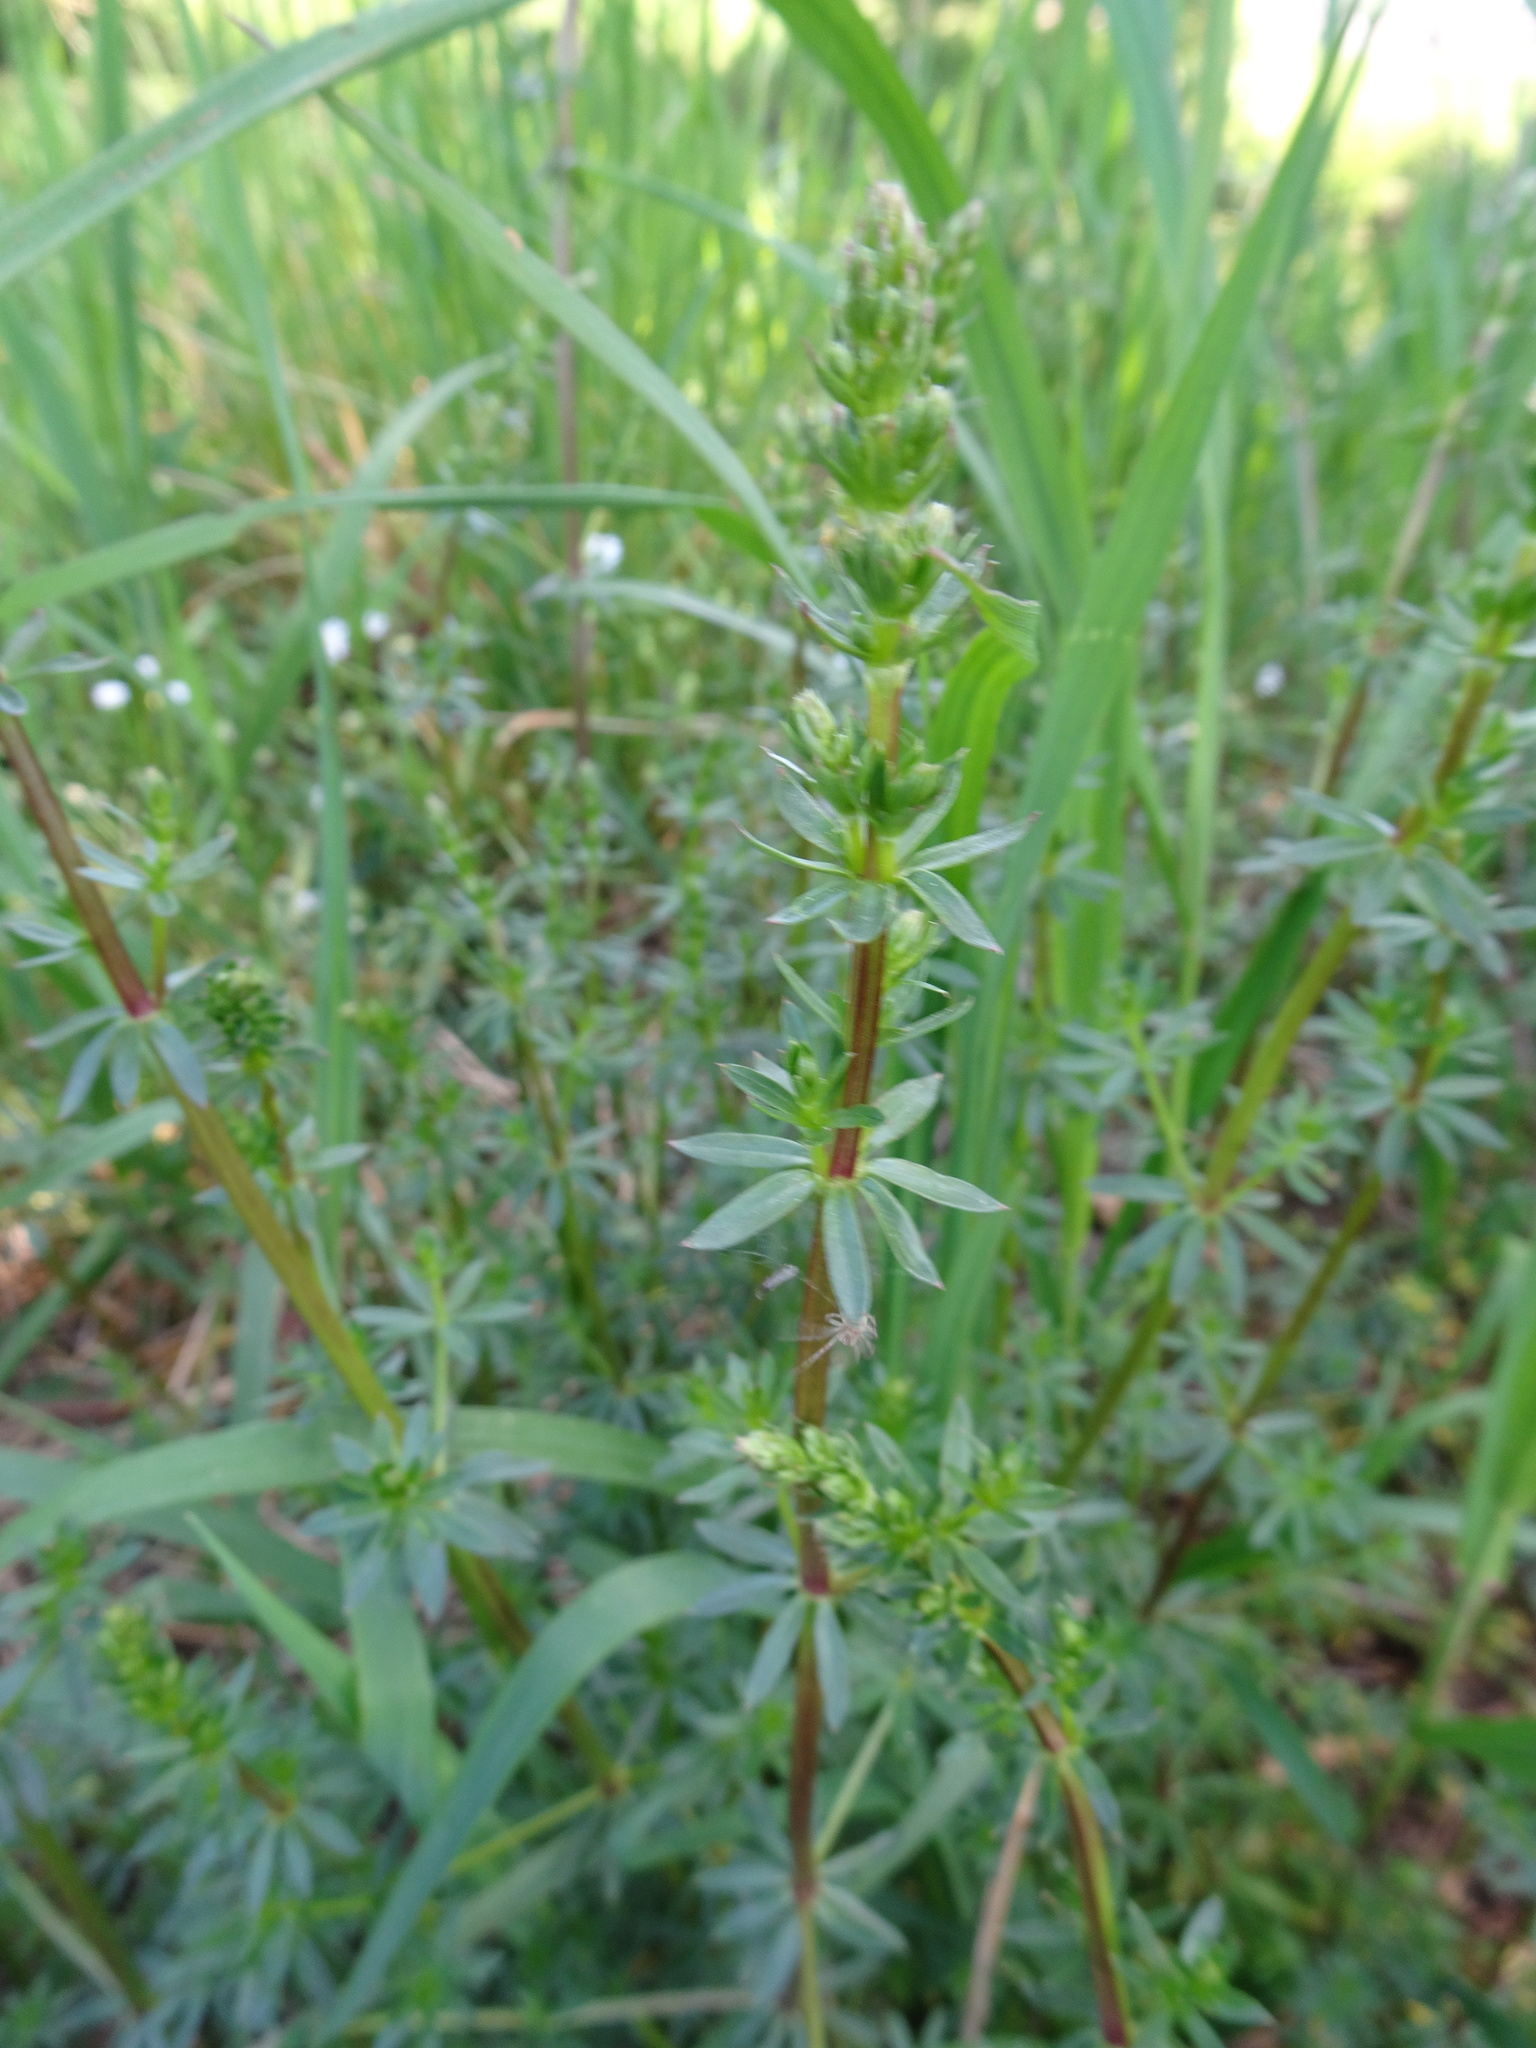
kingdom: Plantae
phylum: Tracheophyta
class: Magnoliopsida
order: Gentianales
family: Rubiaceae
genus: Galium
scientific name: Galium album
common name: White bedstraw
